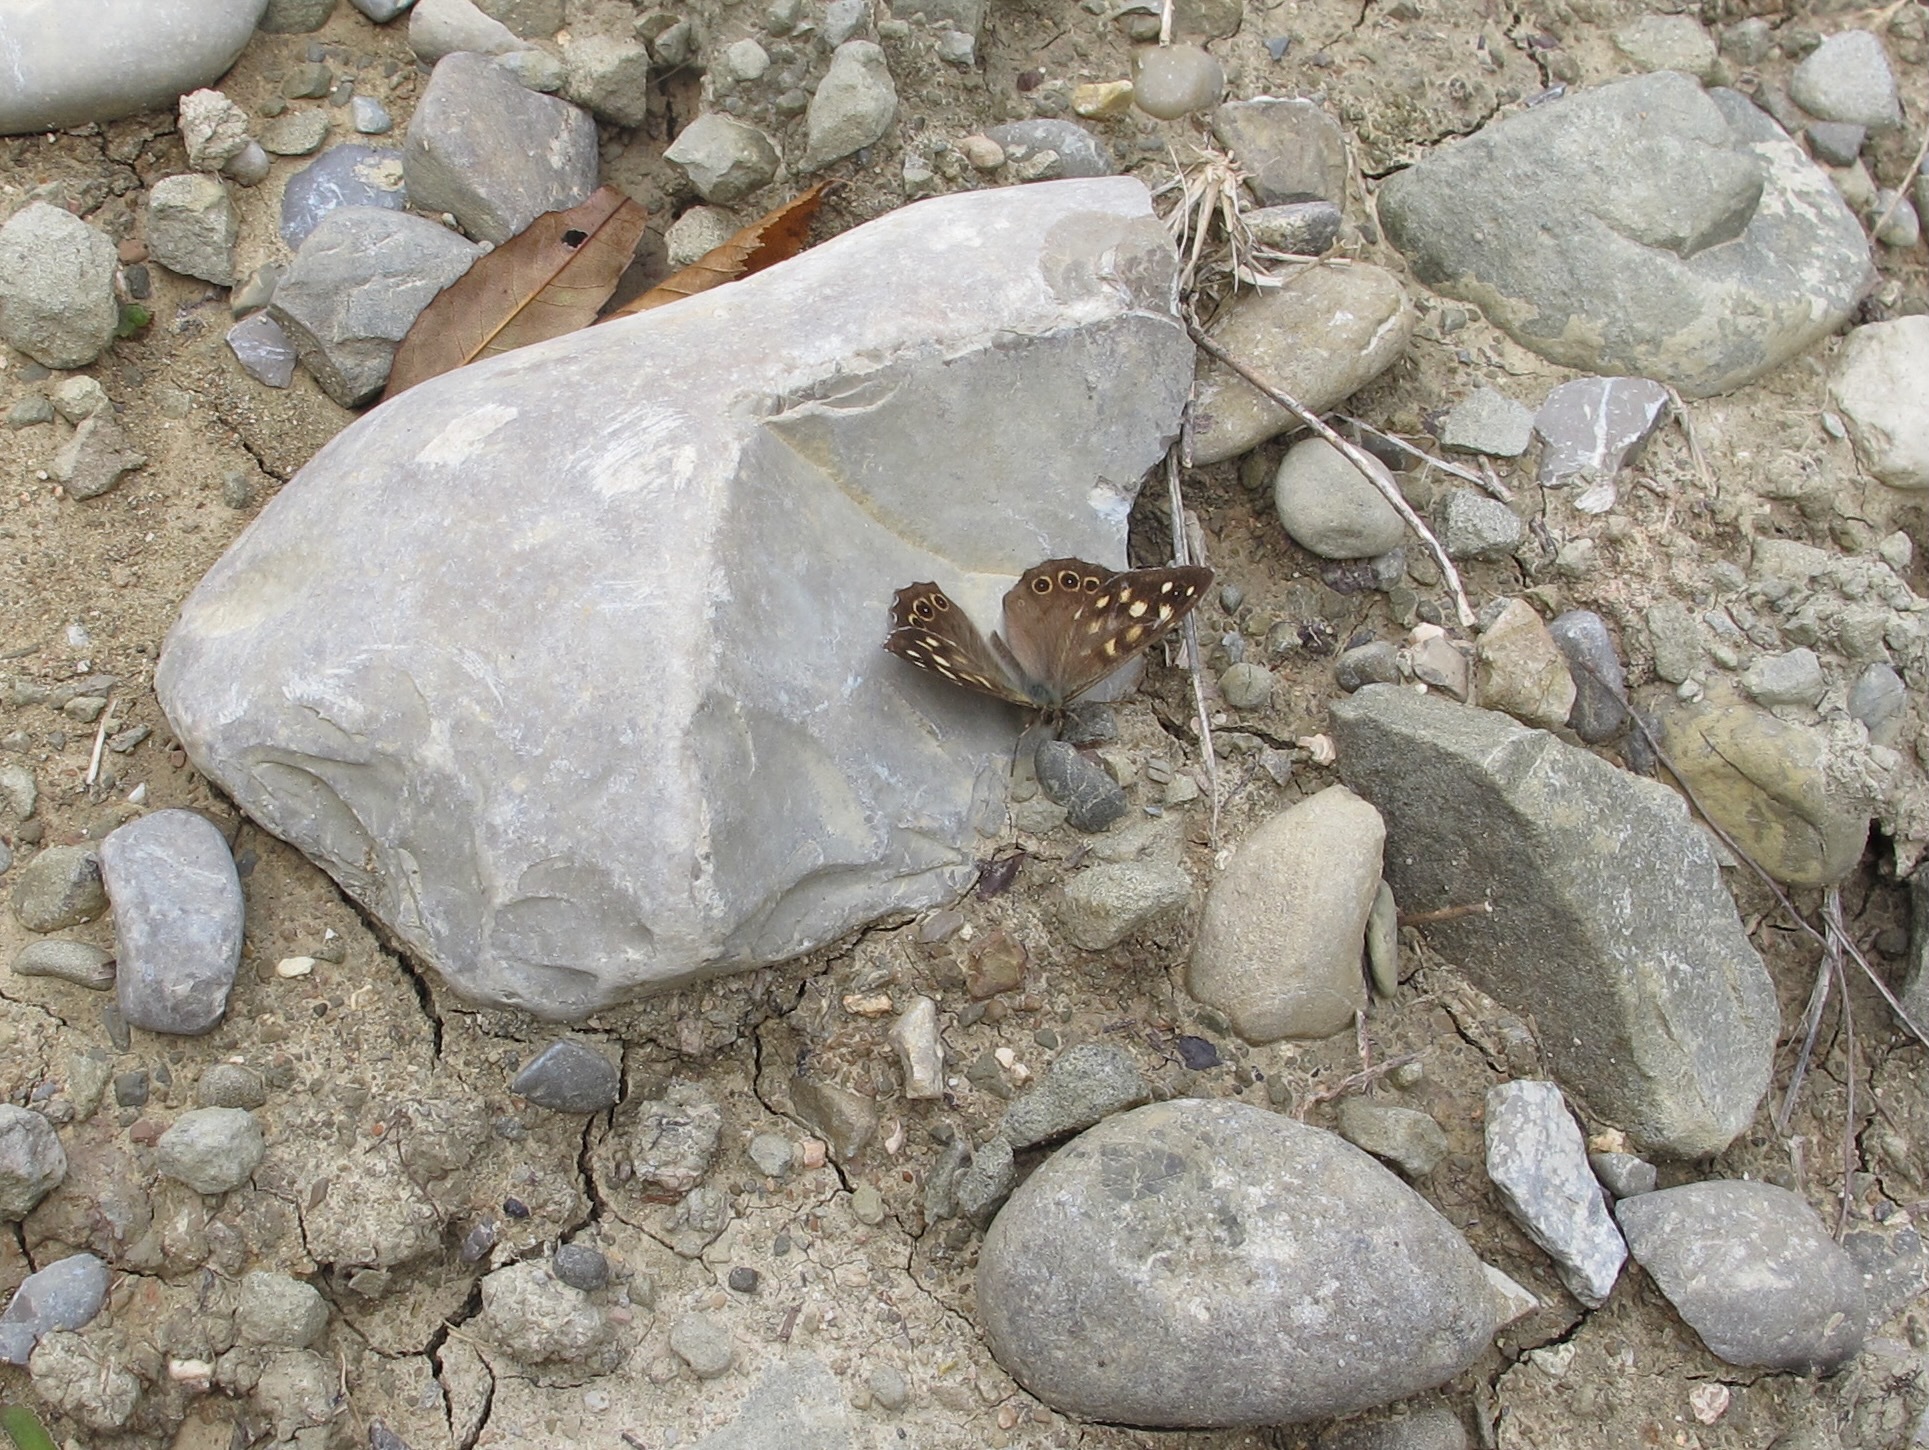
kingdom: Animalia
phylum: Arthropoda
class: Insecta
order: Lepidoptera
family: Nymphalidae
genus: Pararge
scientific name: Pararge aegeria
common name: Speckled wood
